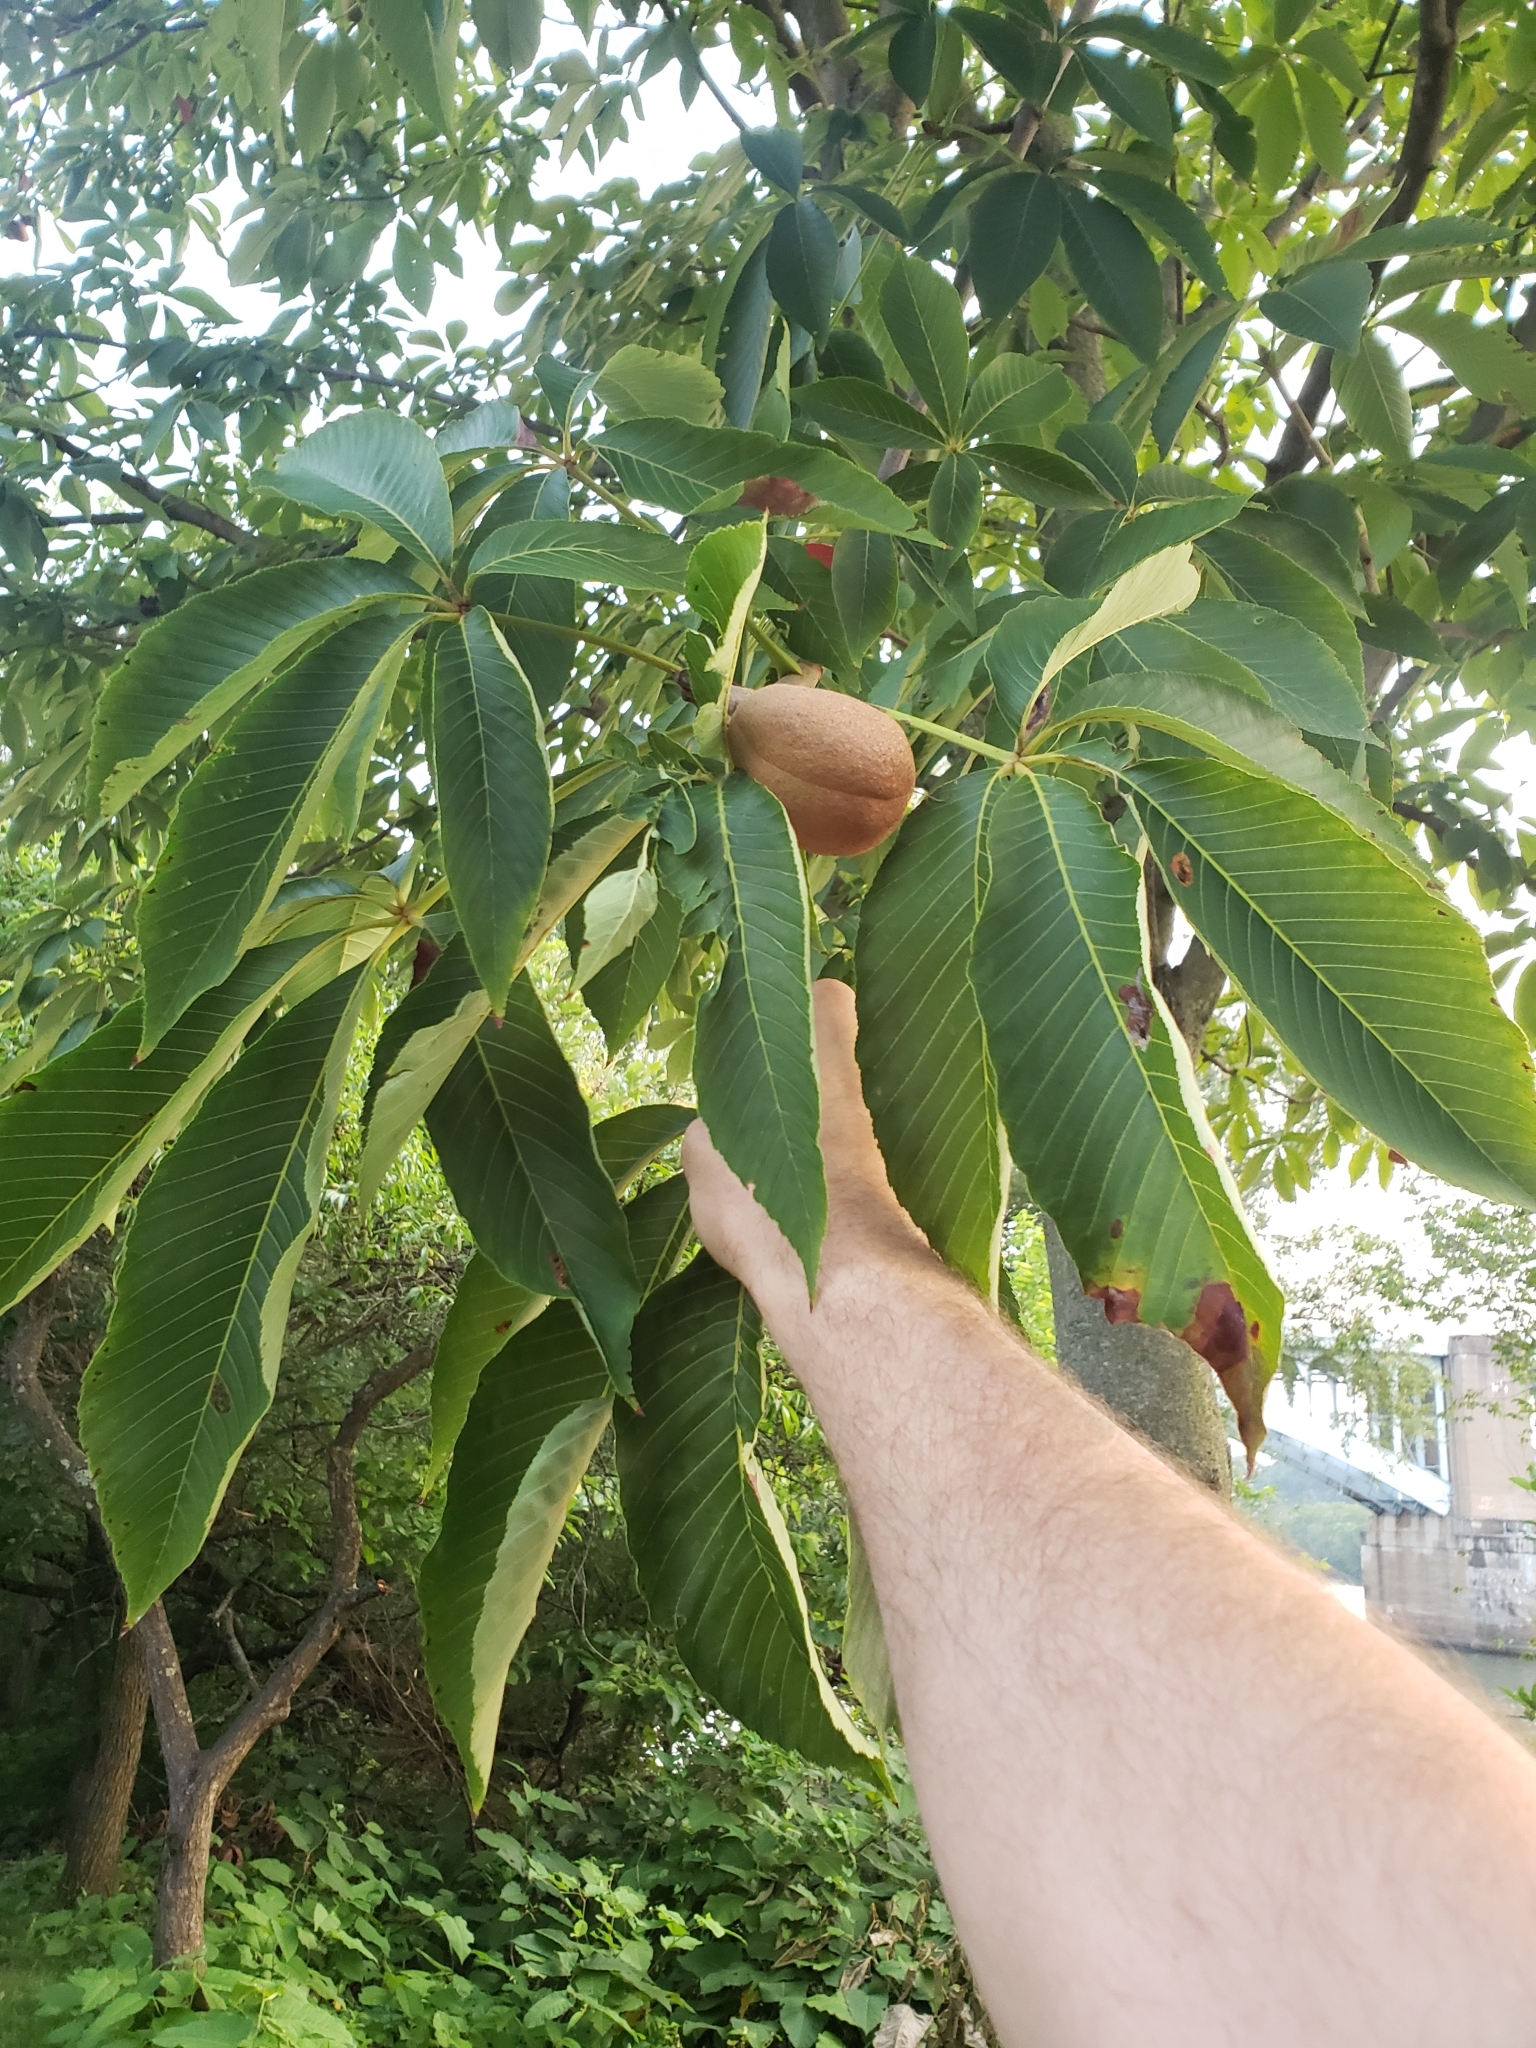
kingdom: Plantae
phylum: Tracheophyta
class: Magnoliopsida
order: Sapindales
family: Sapindaceae
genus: Aesculus
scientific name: Aesculus flava
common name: Yellow buckeye
